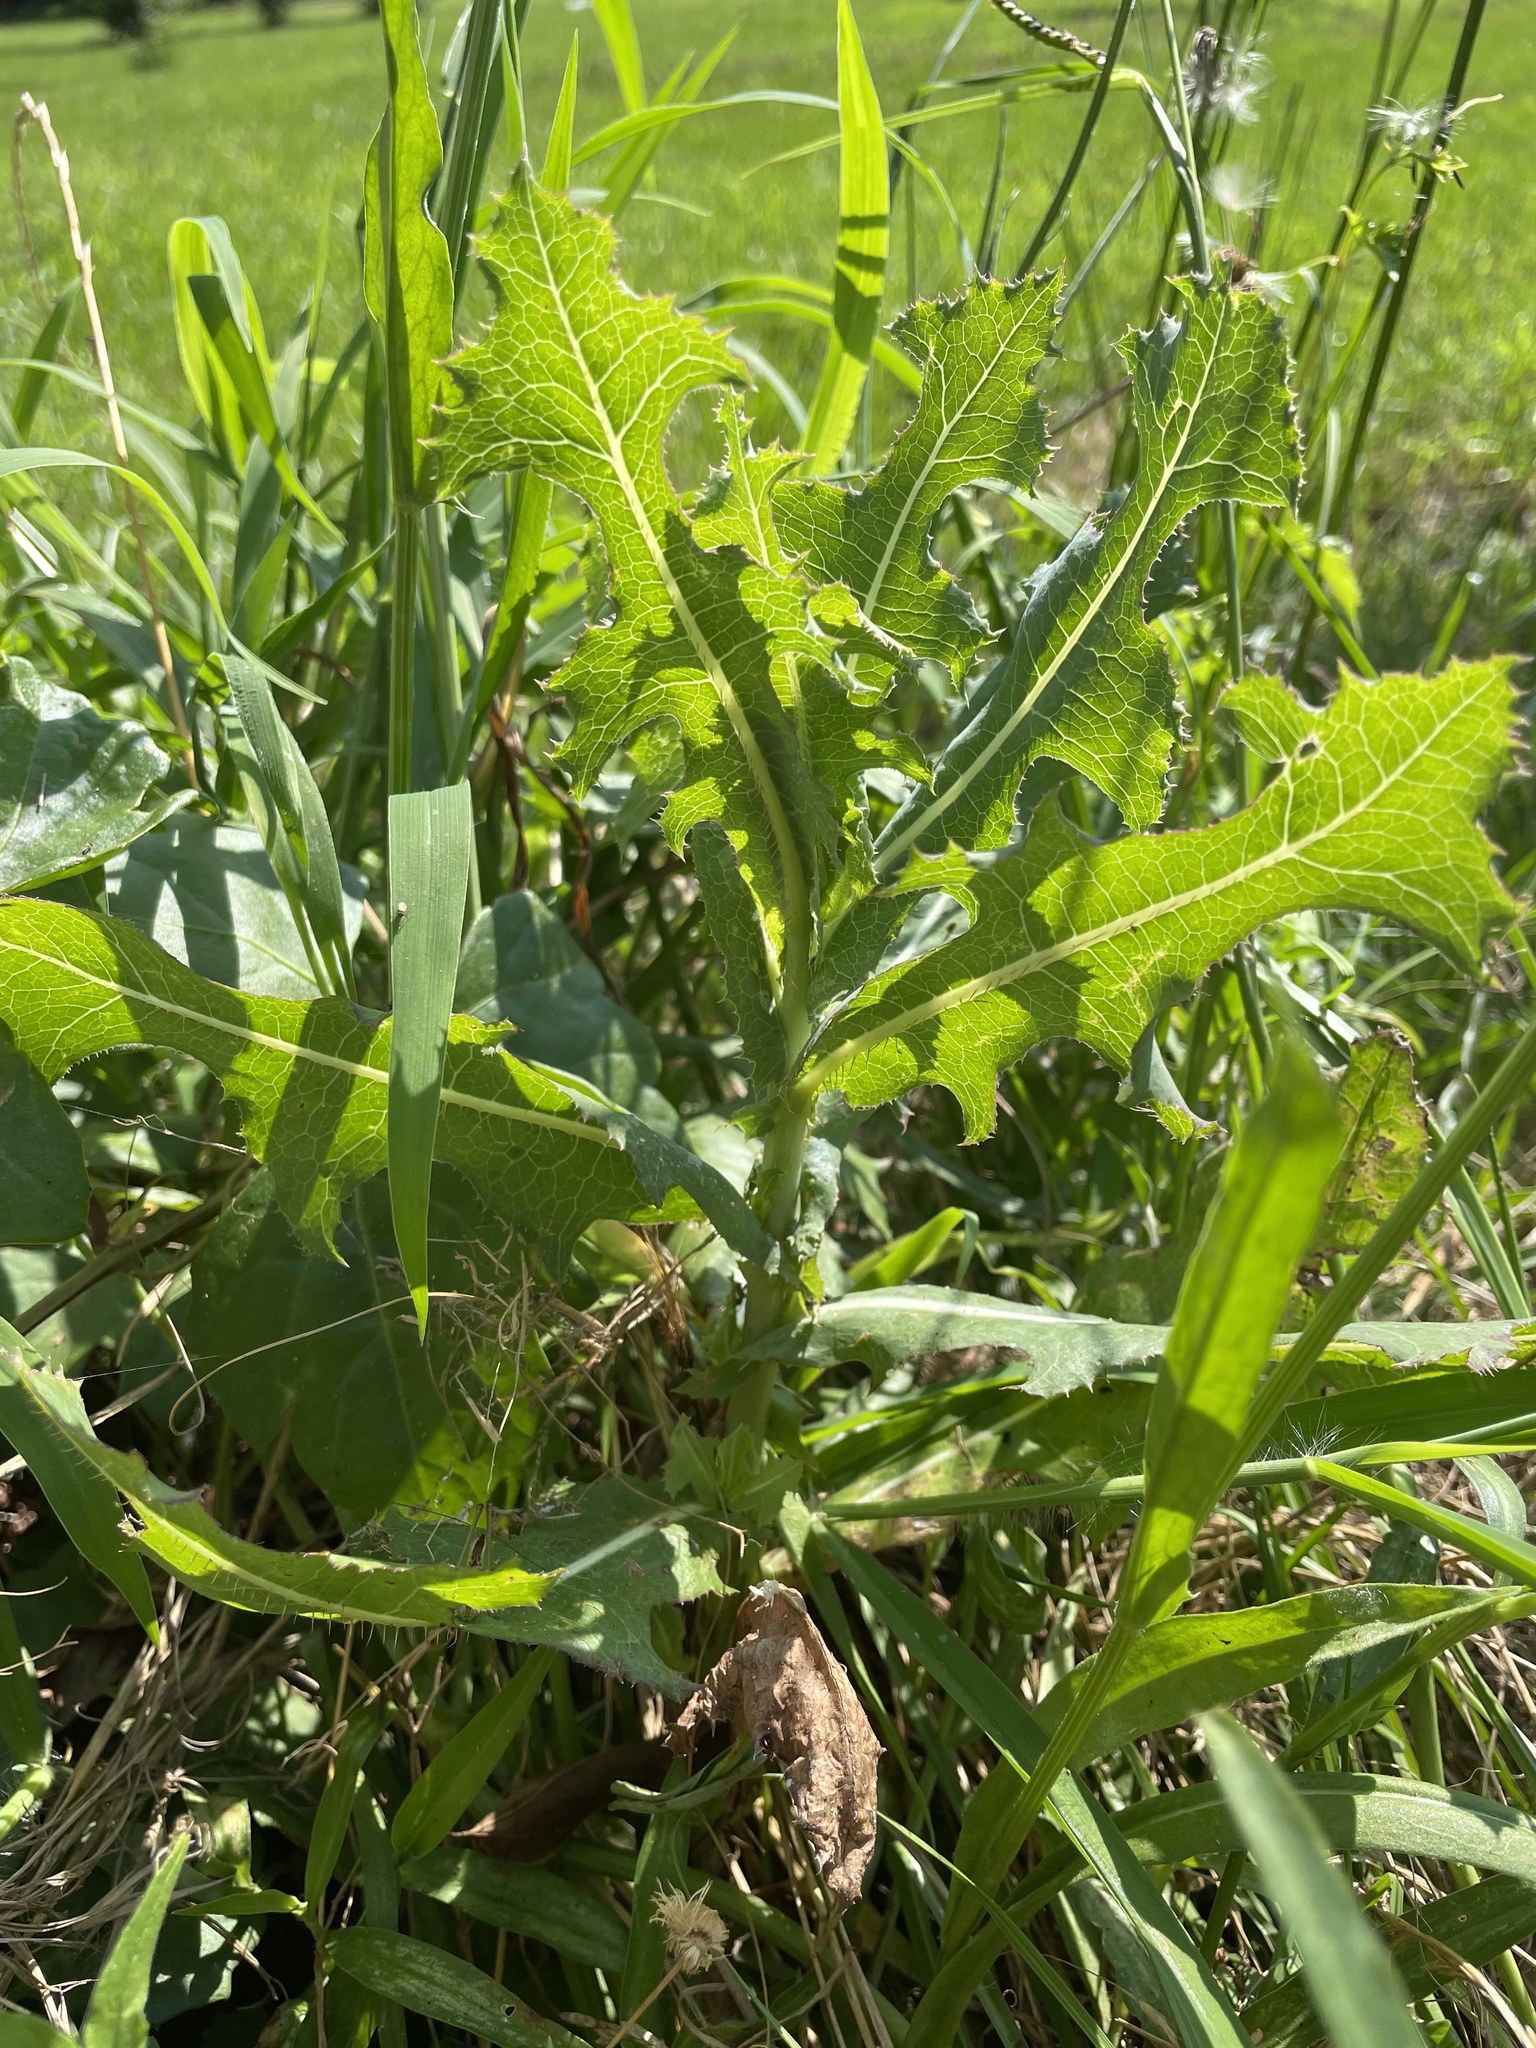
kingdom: Plantae
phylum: Tracheophyta
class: Magnoliopsida
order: Asterales
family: Asteraceae
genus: Lactuca
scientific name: Lactuca serriola
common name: Prickly lettuce
